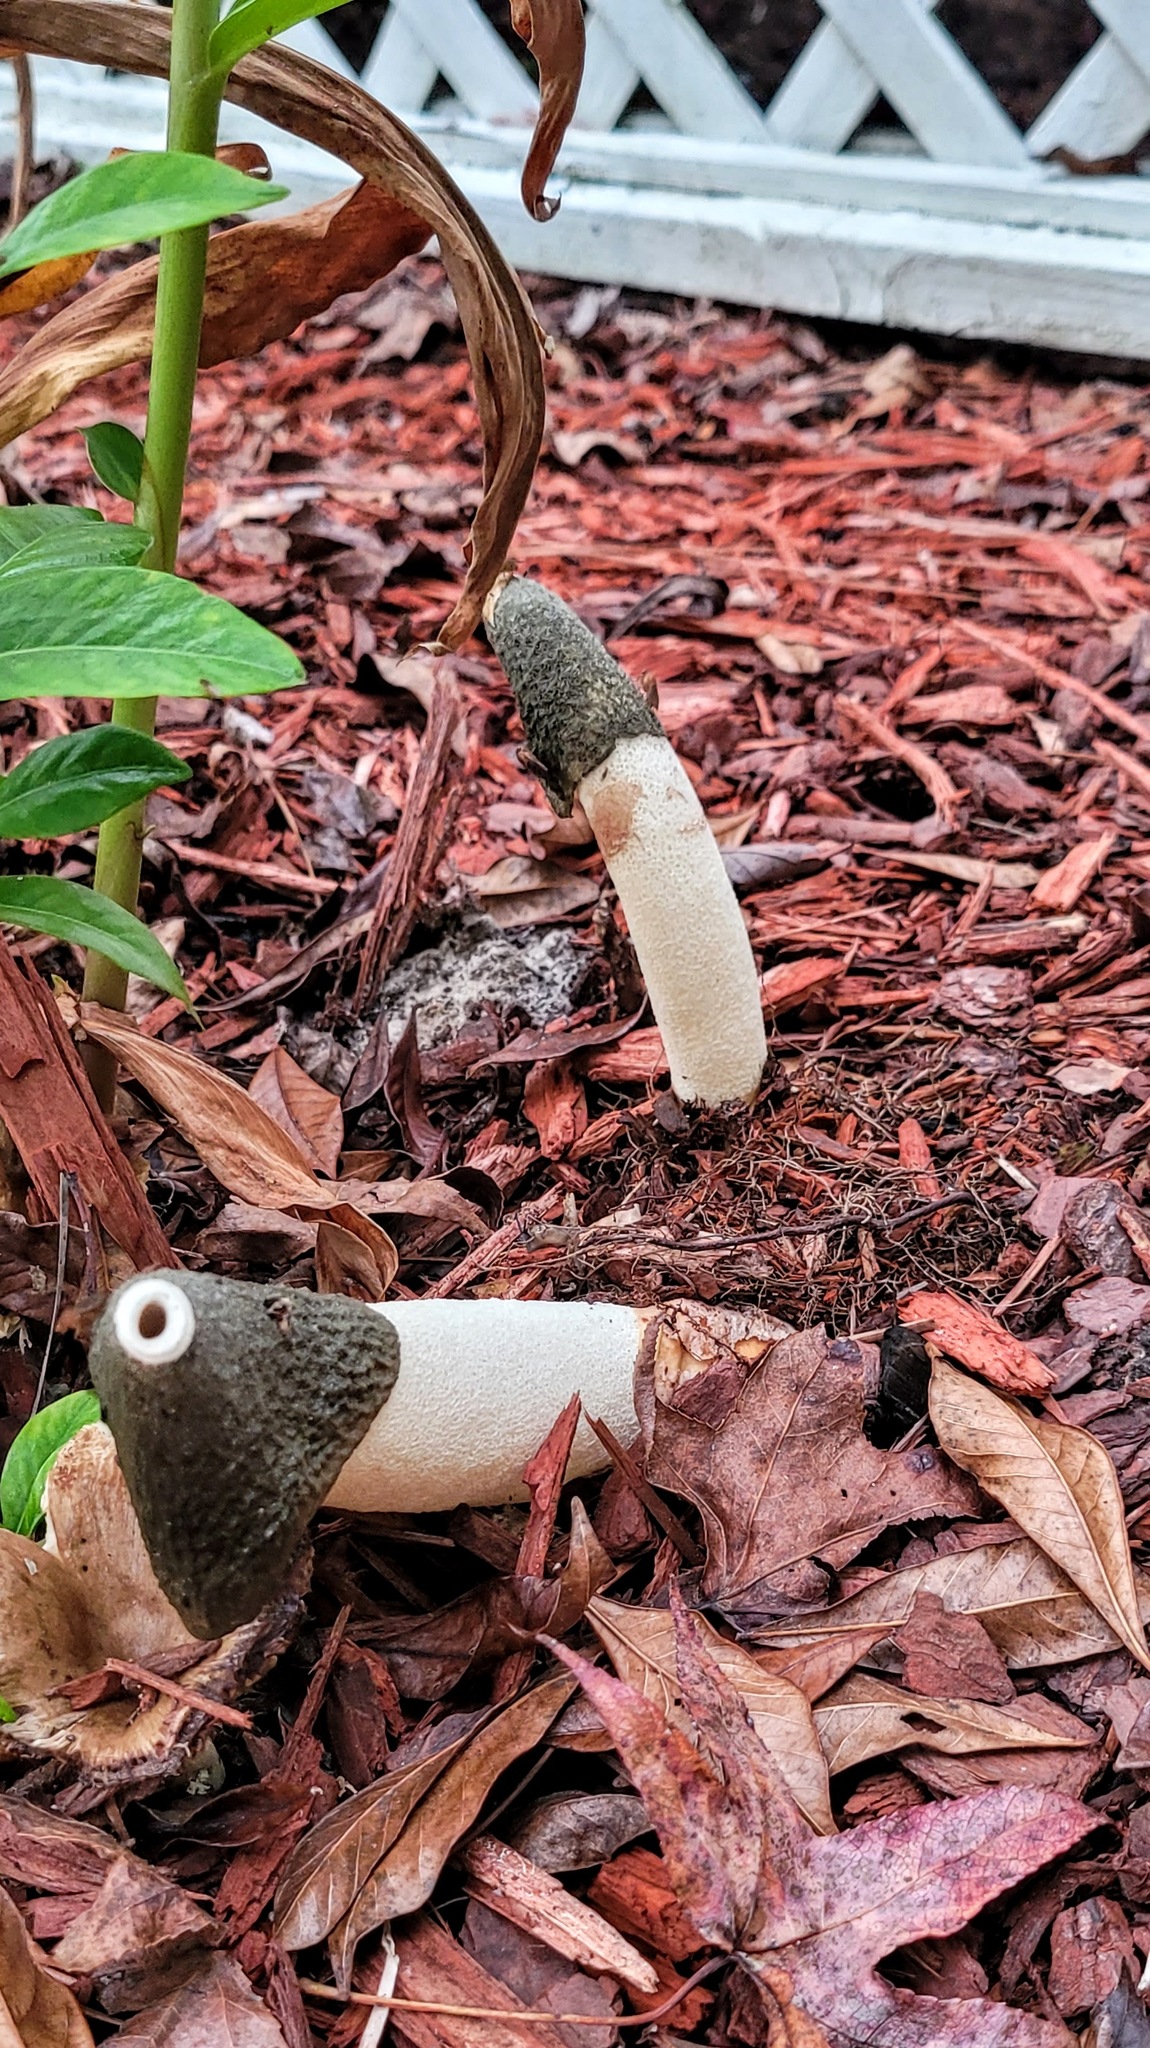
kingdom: Fungi
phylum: Basidiomycota
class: Agaricomycetes
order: Phallales
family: Phallaceae
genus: Phallus
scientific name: Phallus ravenelii
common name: Ravenel's stinkhorn
